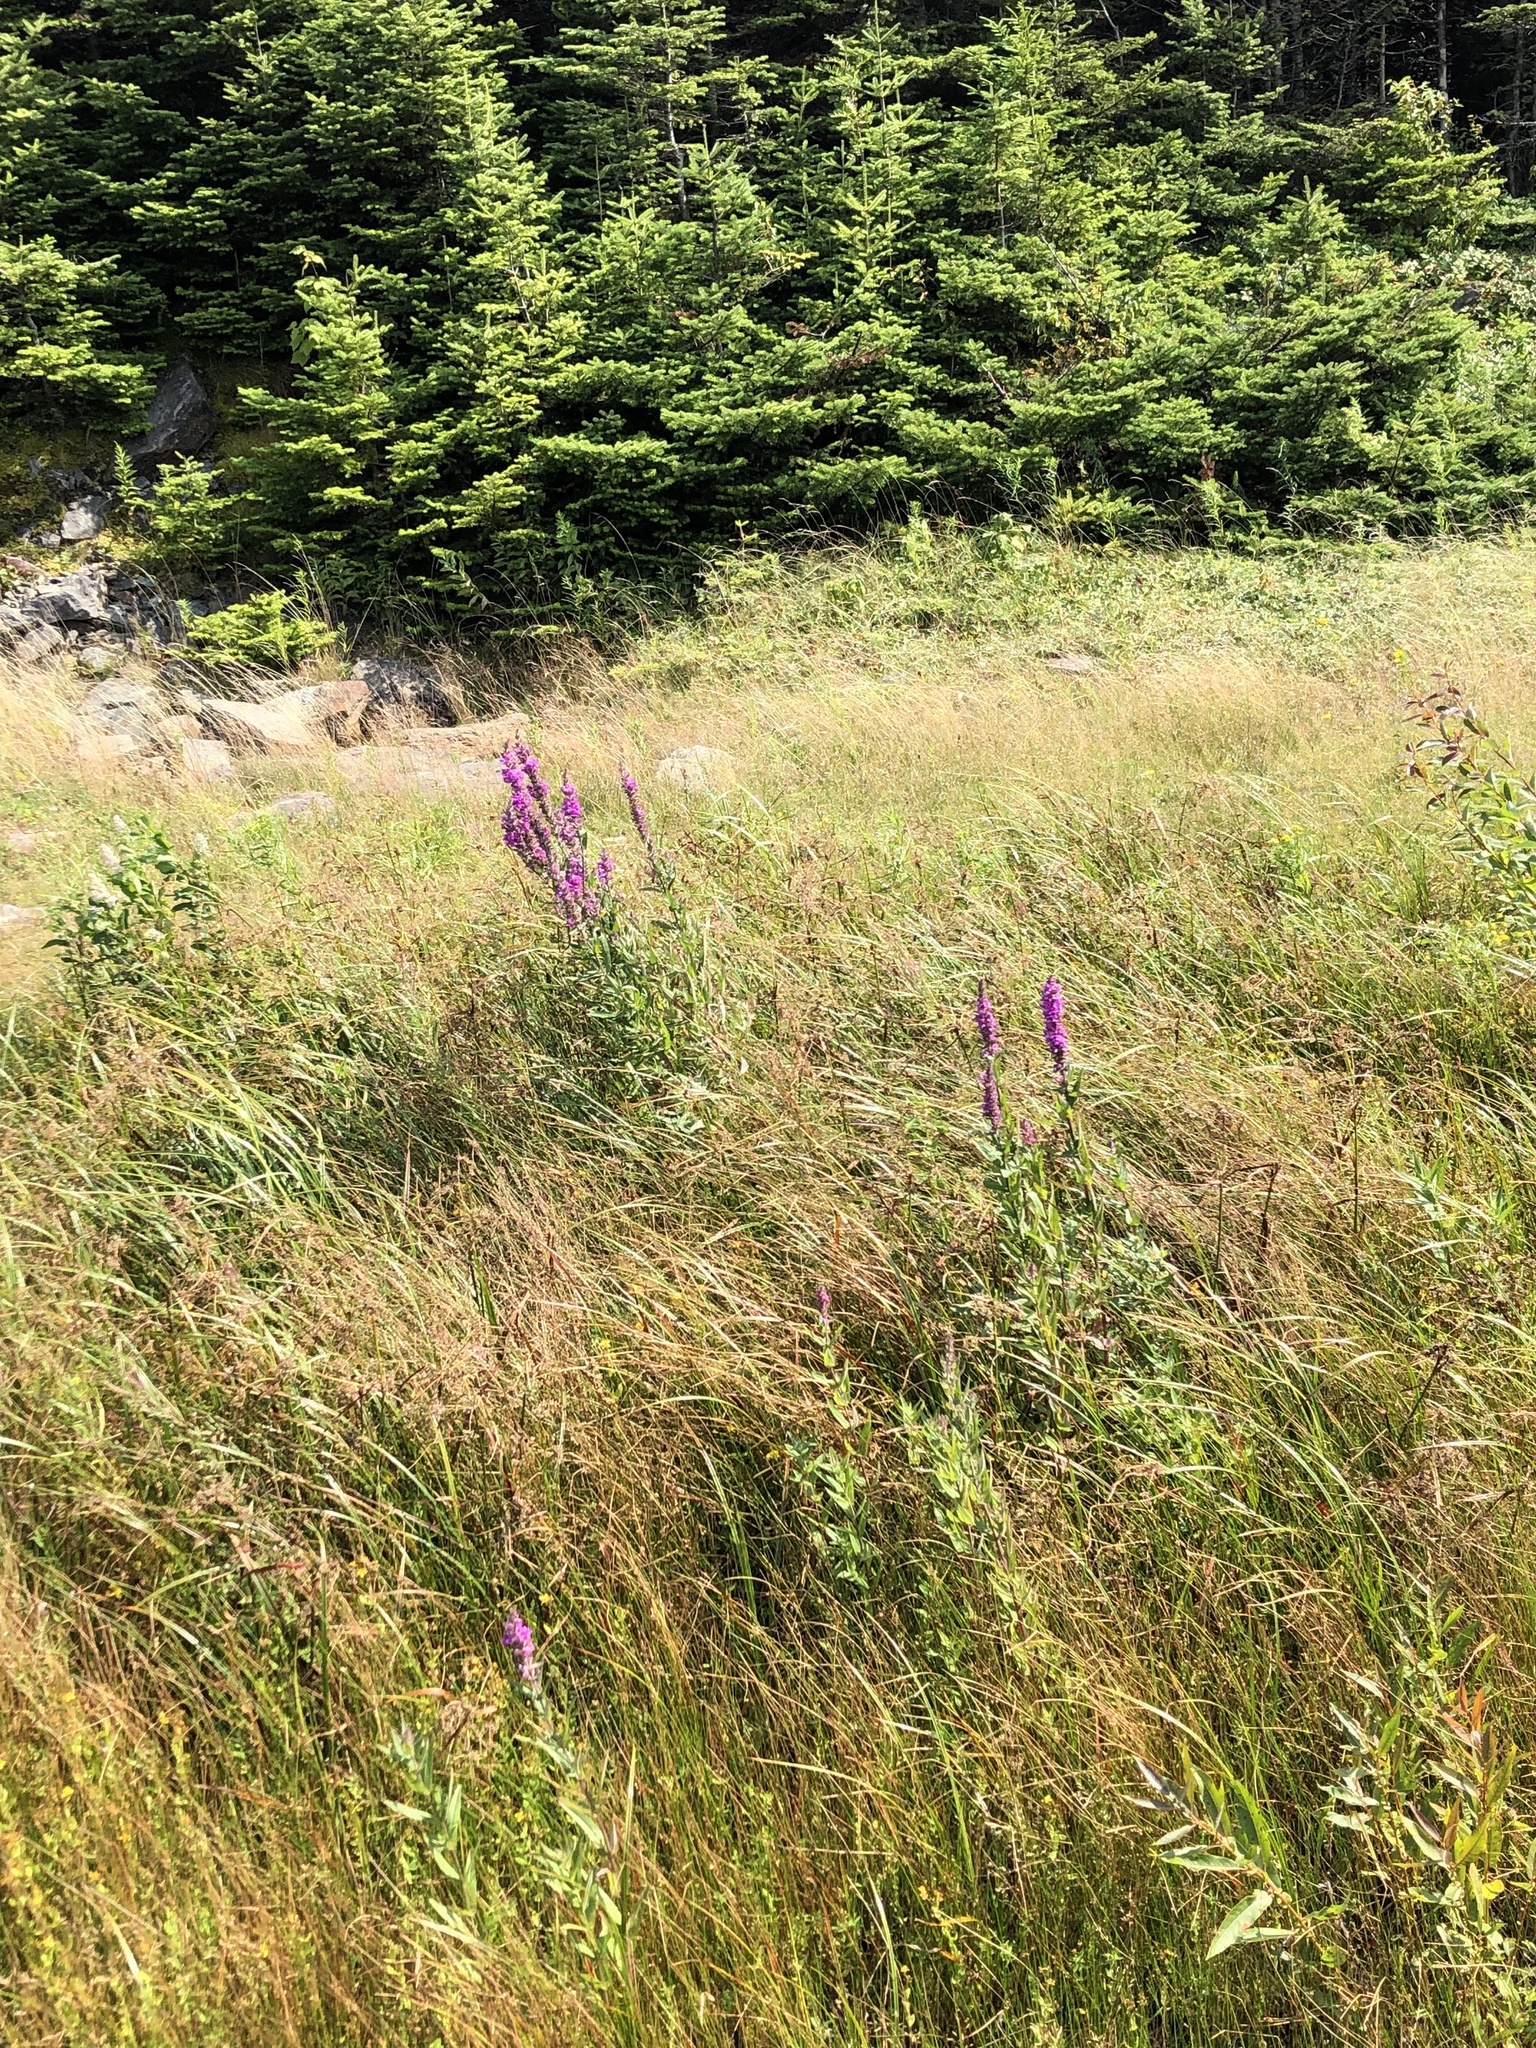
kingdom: Plantae
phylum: Tracheophyta
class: Magnoliopsida
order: Myrtales
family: Lythraceae
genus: Lythrum
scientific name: Lythrum salicaria
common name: Purple loosestrife
